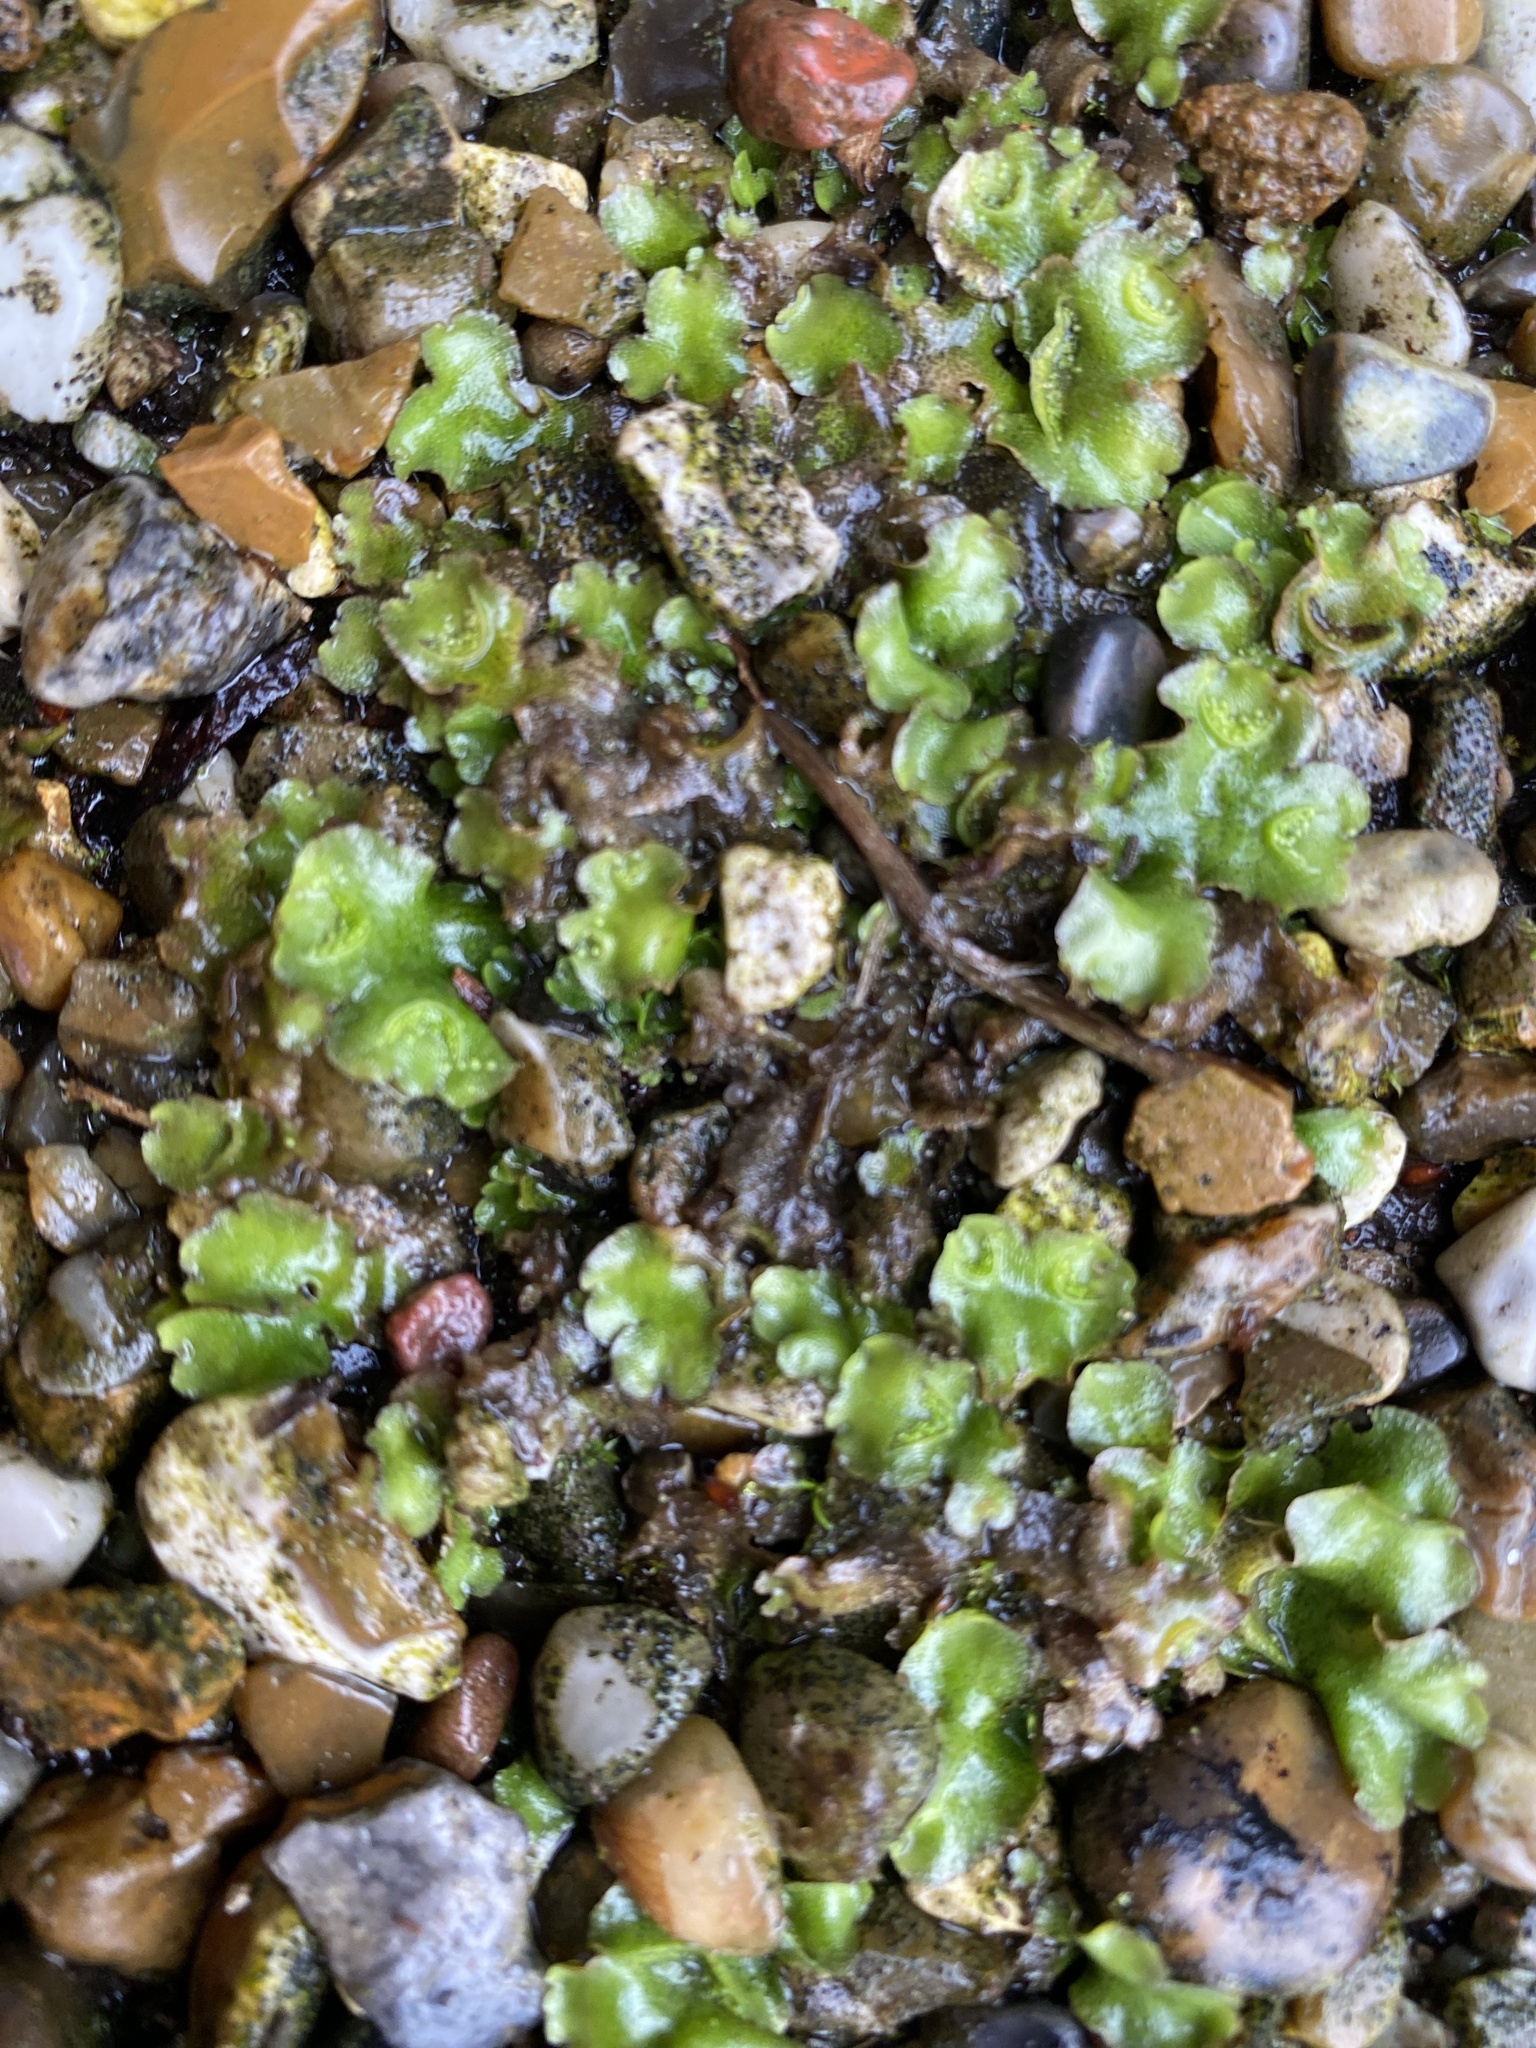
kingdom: Plantae
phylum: Marchantiophyta
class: Marchantiopsida
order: Lunulariales
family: Lunulariaceae
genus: Lunularia
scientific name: Lunularia cruciata
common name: Crescent-cup liverwort
